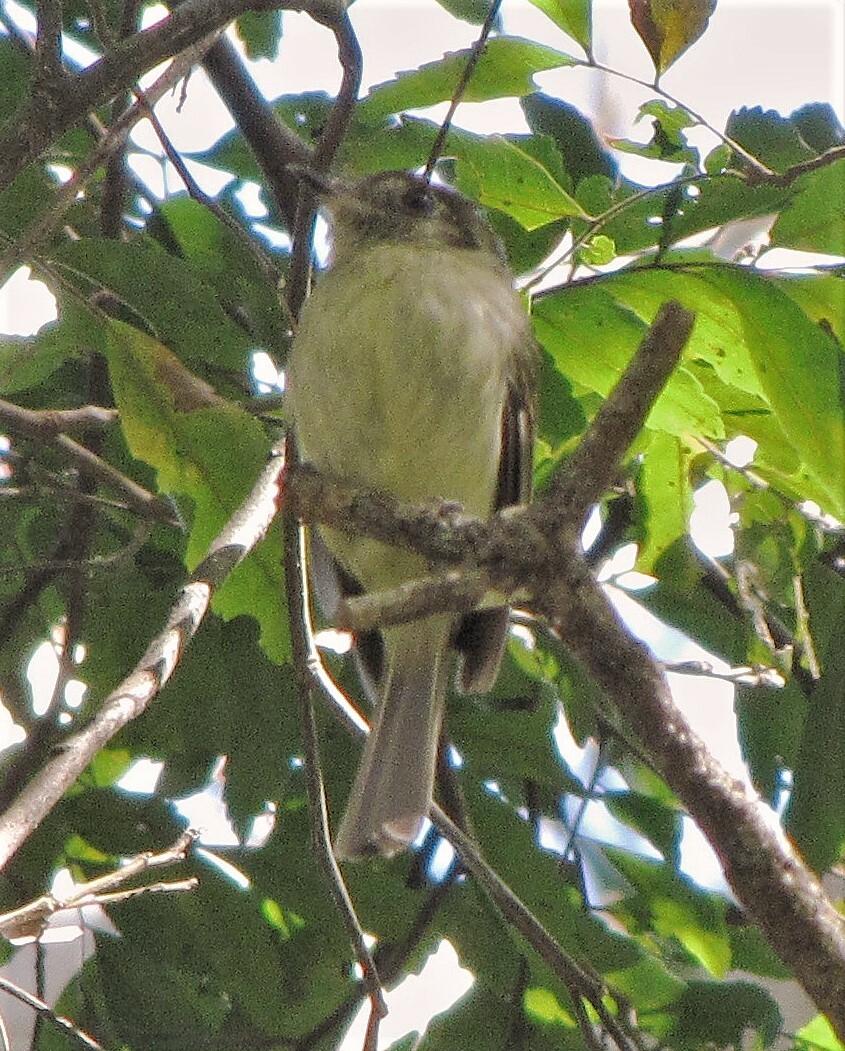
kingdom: Animalia
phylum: Chordata
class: Aves
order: Passeriformes
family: Tyrannidae
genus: Leptopogon
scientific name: Leptopogon amaurocephalus
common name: Sepia-capped flycatcher
